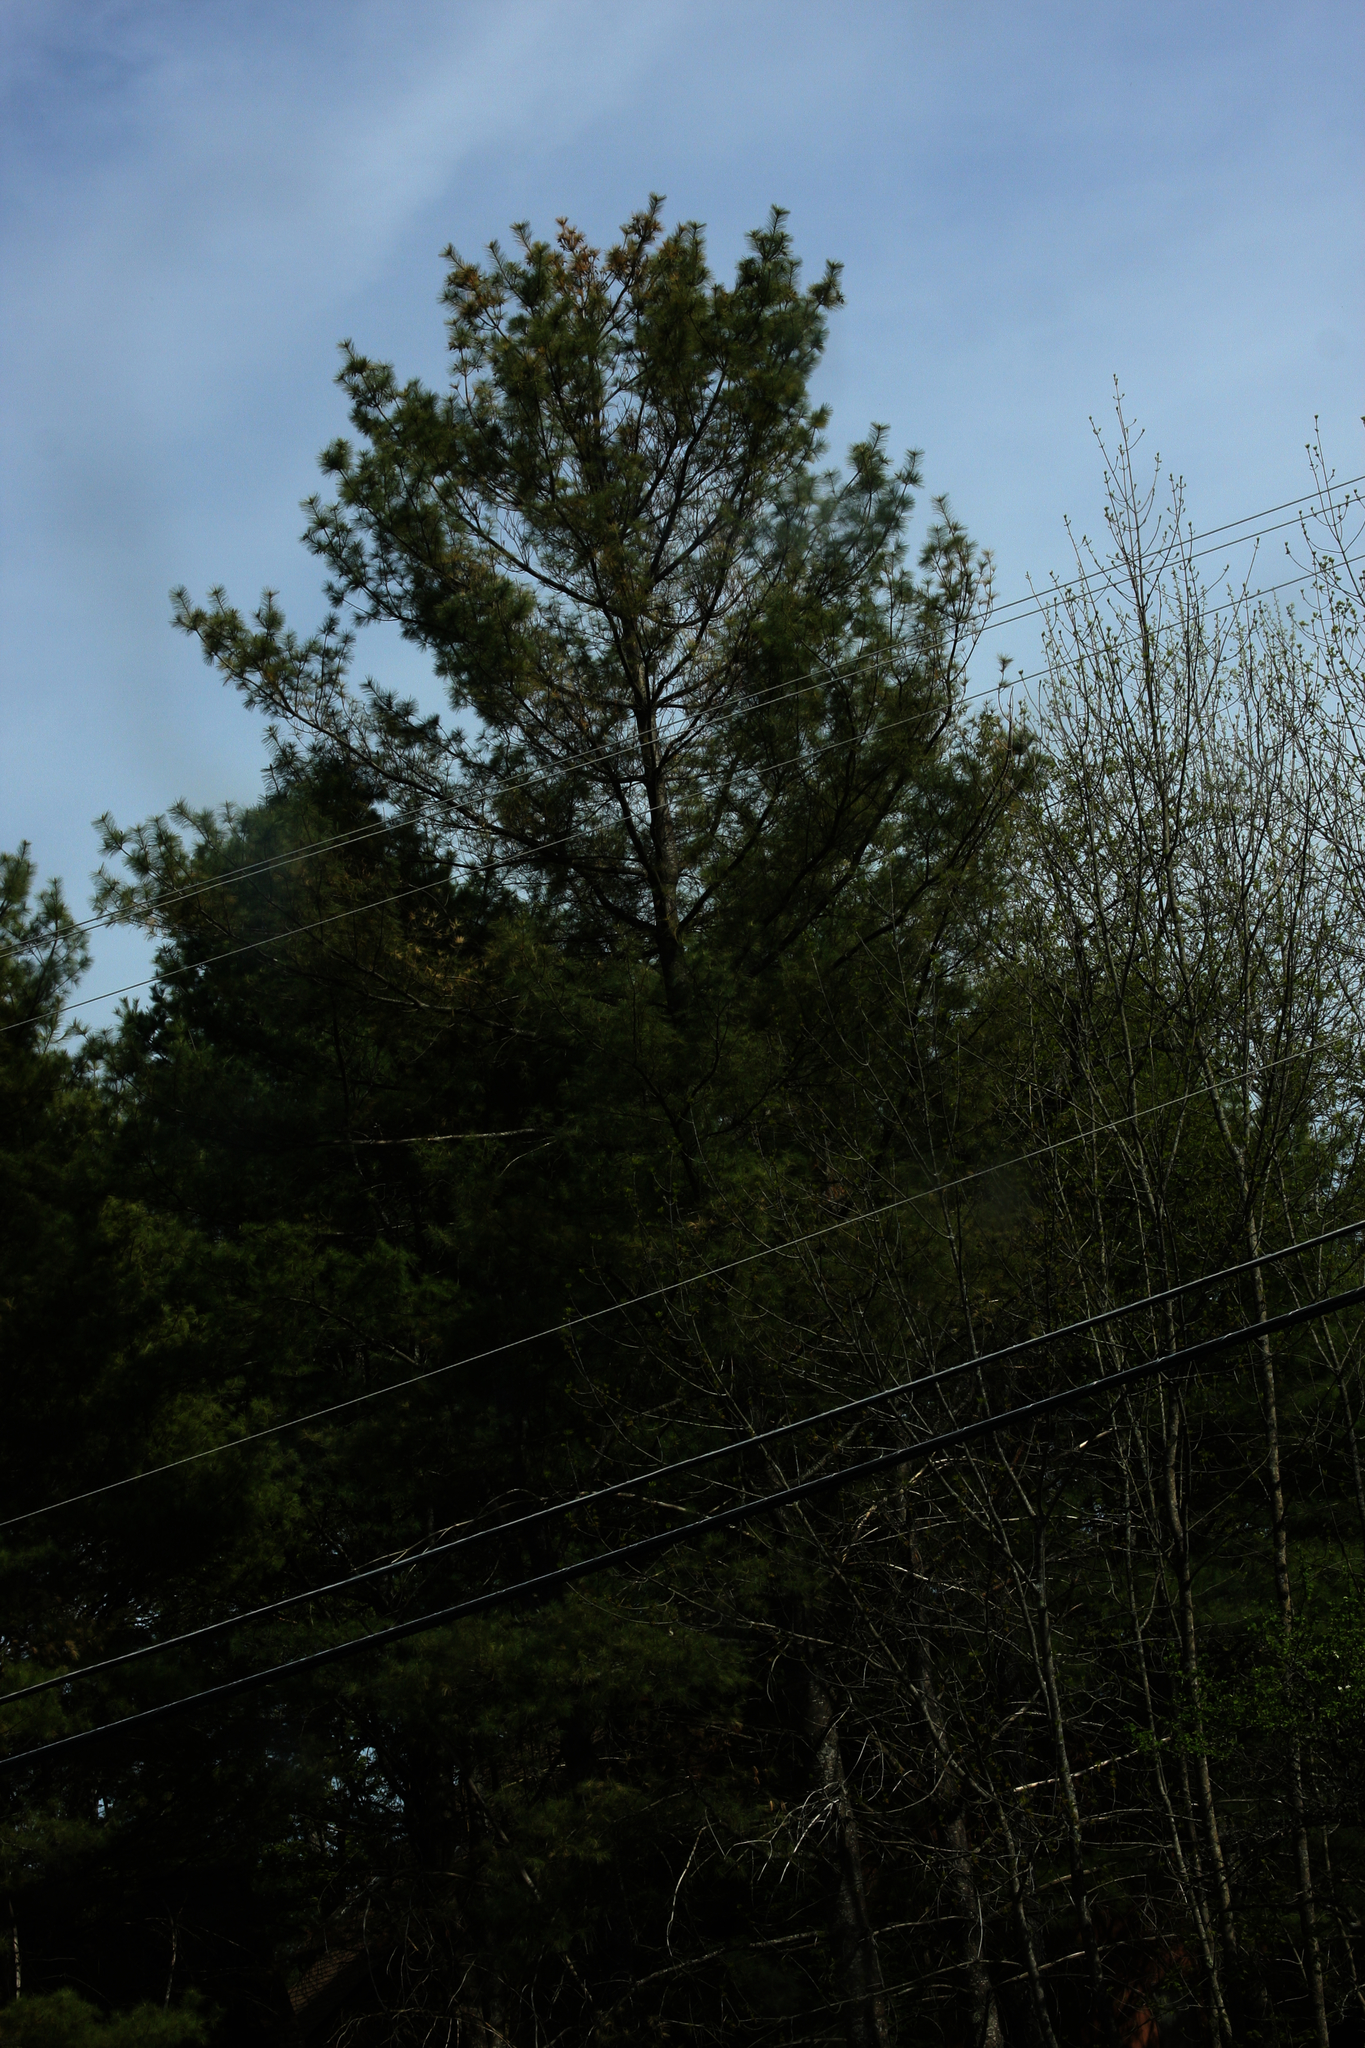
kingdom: Plantae
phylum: Tracheophyta
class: Pinopsida
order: Pinales
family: Pinaceae
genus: Pinus
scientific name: Pinus strobus
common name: Weymouth pine
